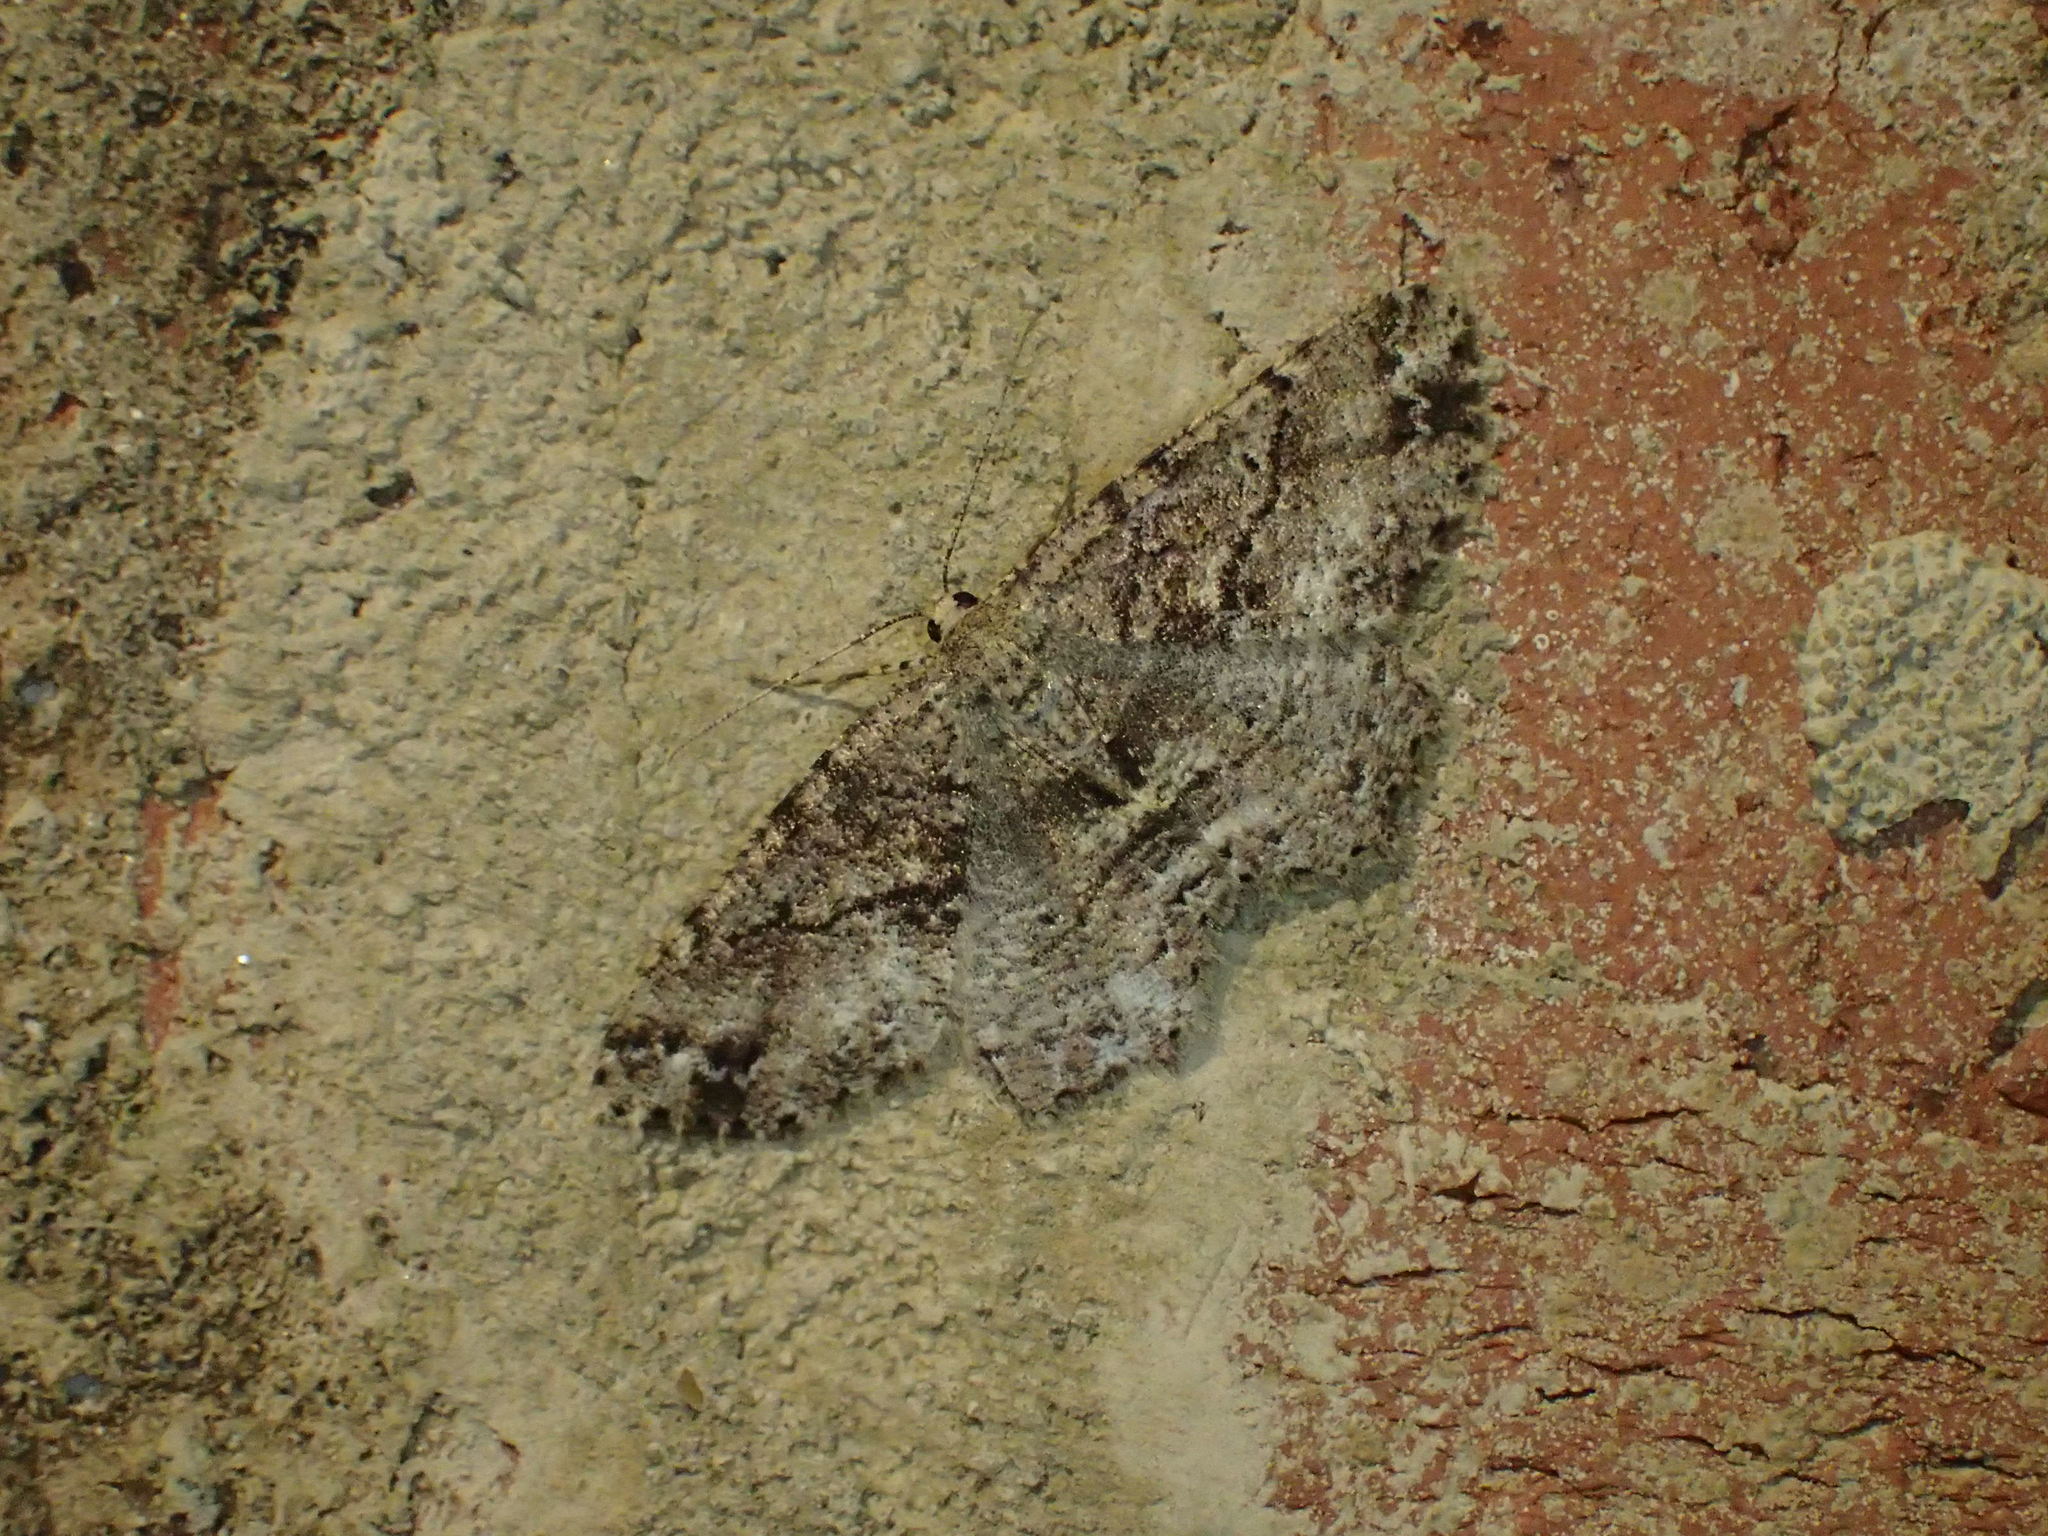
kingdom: Animalia
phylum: Arthropoda
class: Insecta
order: Lepidoptera
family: Geometridae
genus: Melanolophia
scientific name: Melanolophia canadaria
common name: Canadian melanolophia
